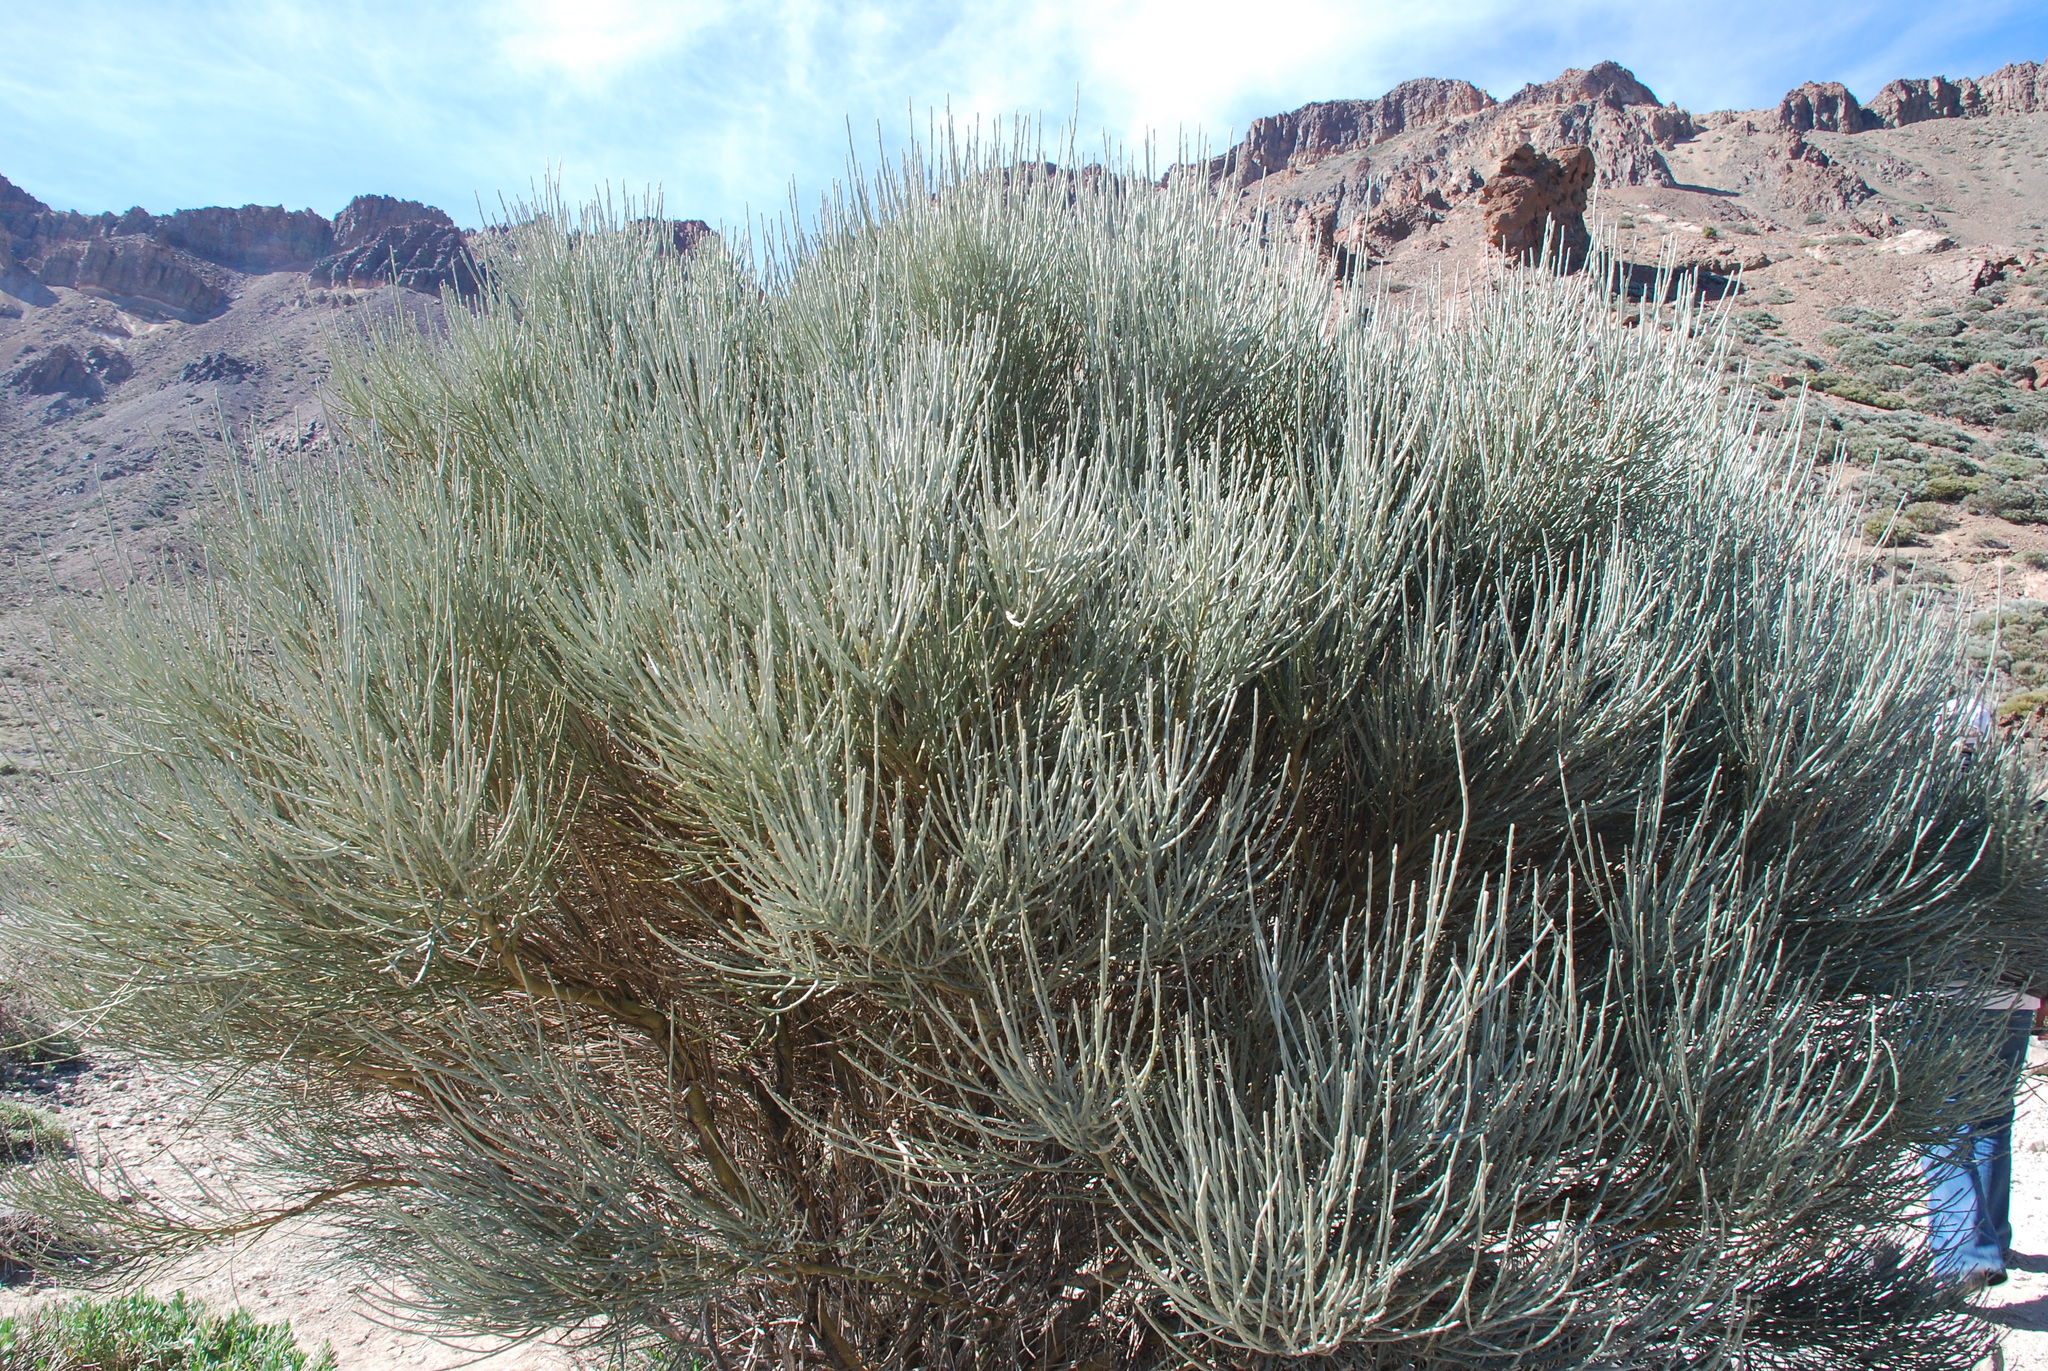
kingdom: Plantae
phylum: Tracheophyta
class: Magnoliopsida
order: Fabales
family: Fabaceae
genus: Cytisus
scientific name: Cytisus supranubius
